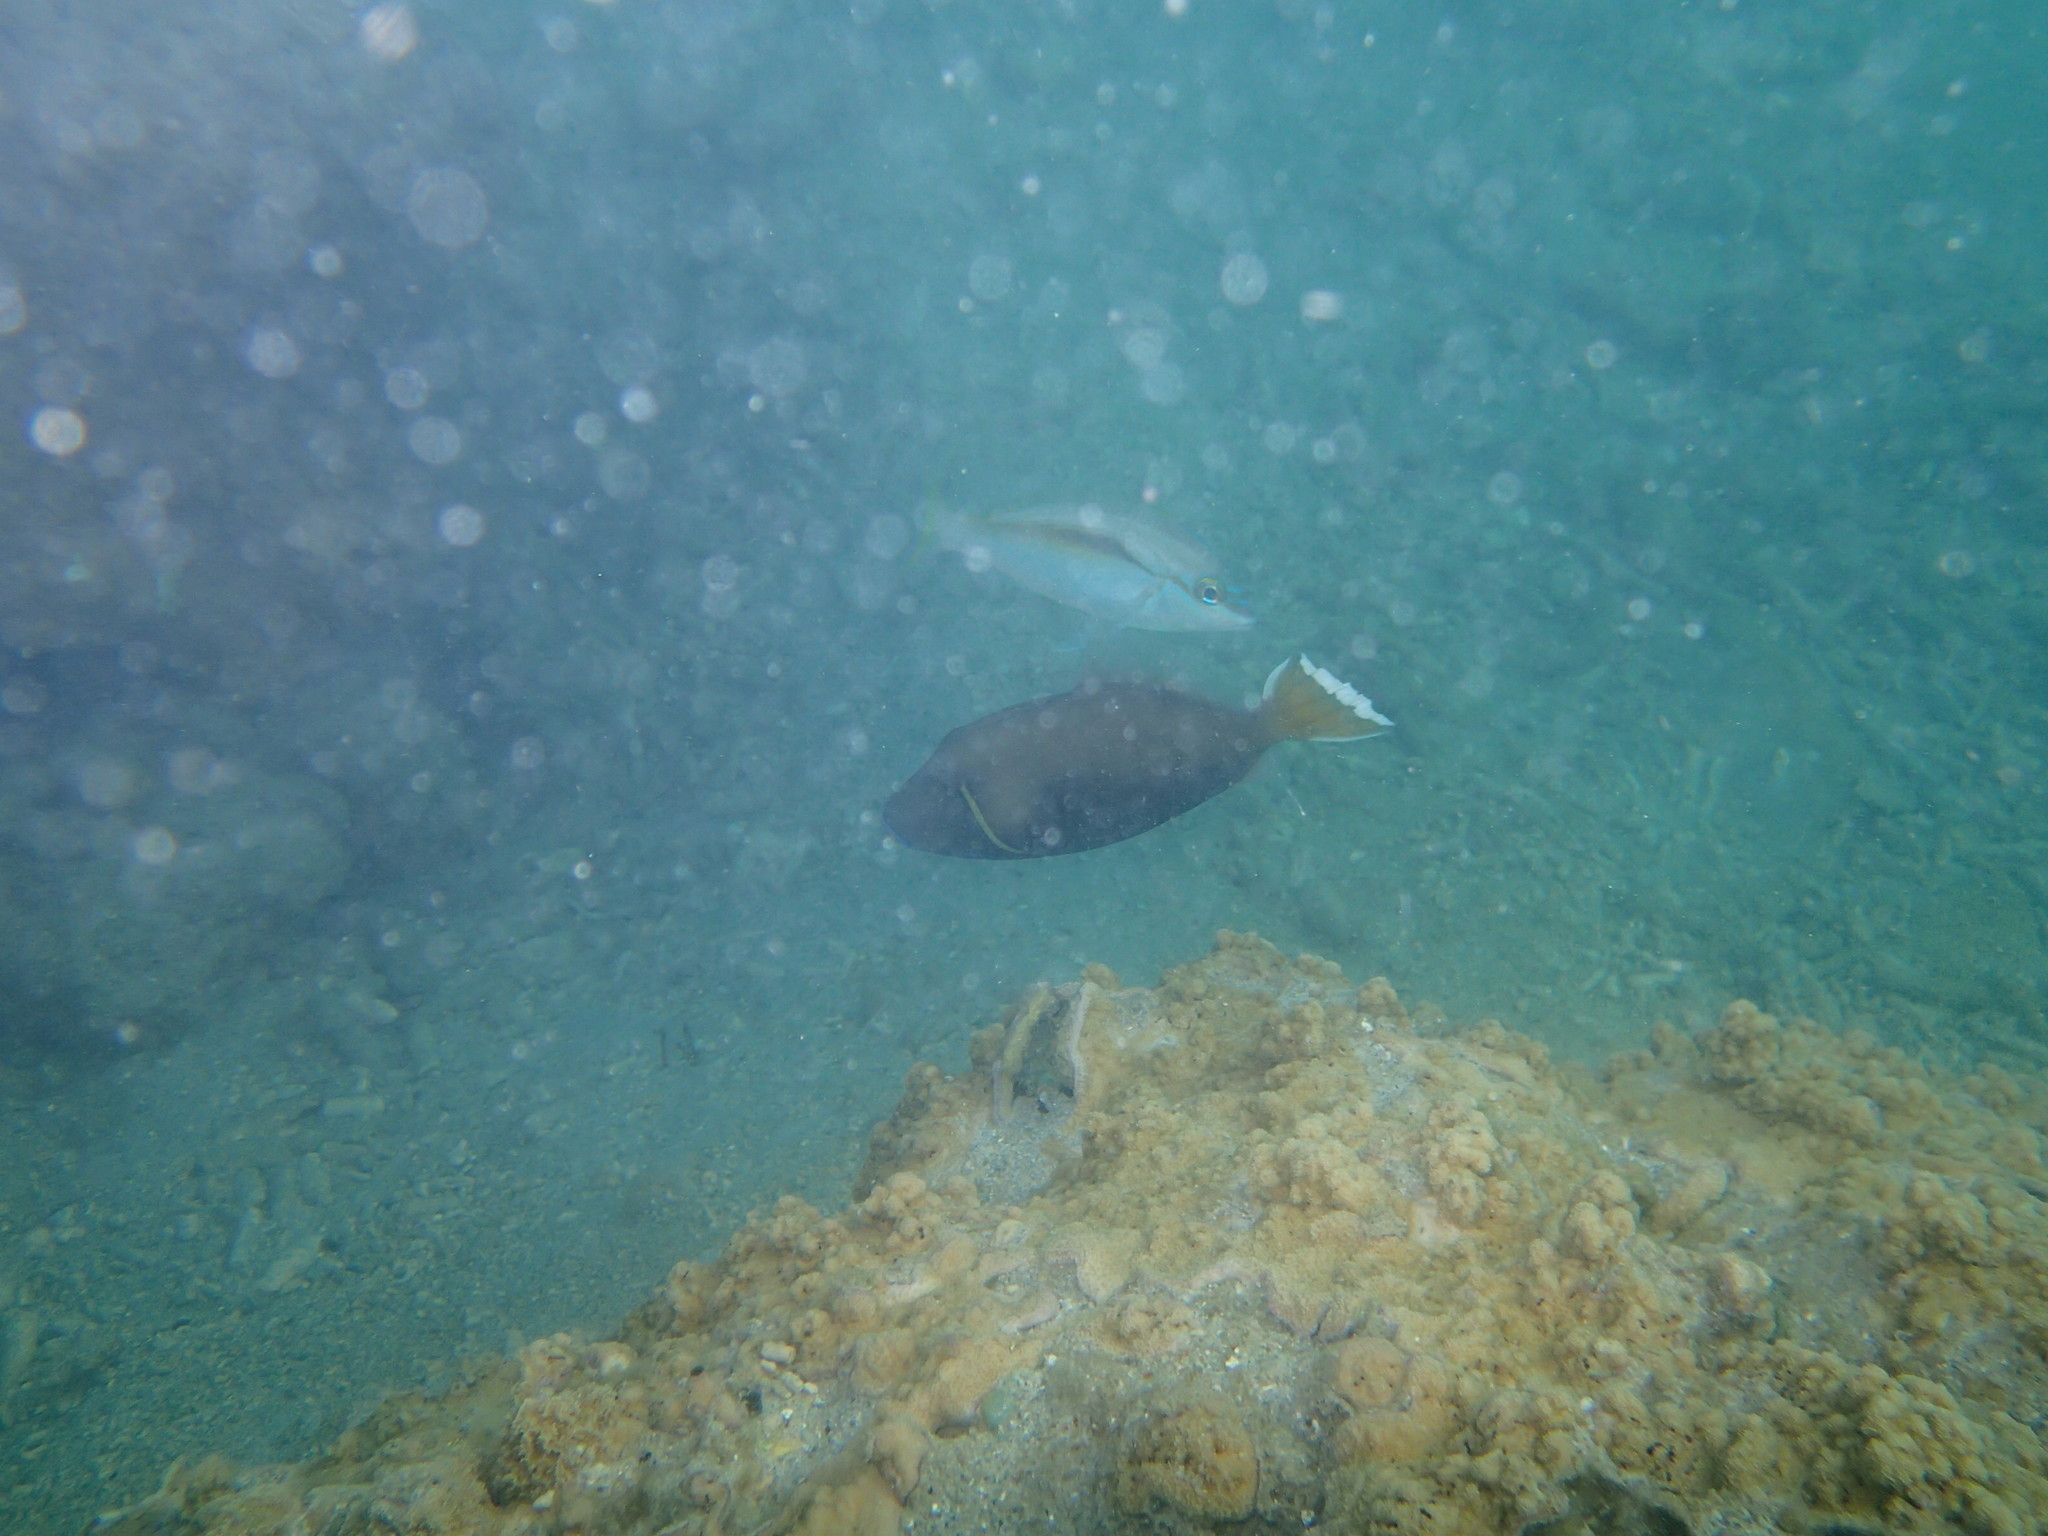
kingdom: Animalia
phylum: Chordata
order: Tetraodontiformes
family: Balistidae
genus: Sufflamen
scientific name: Sufflamen chrysopterum
